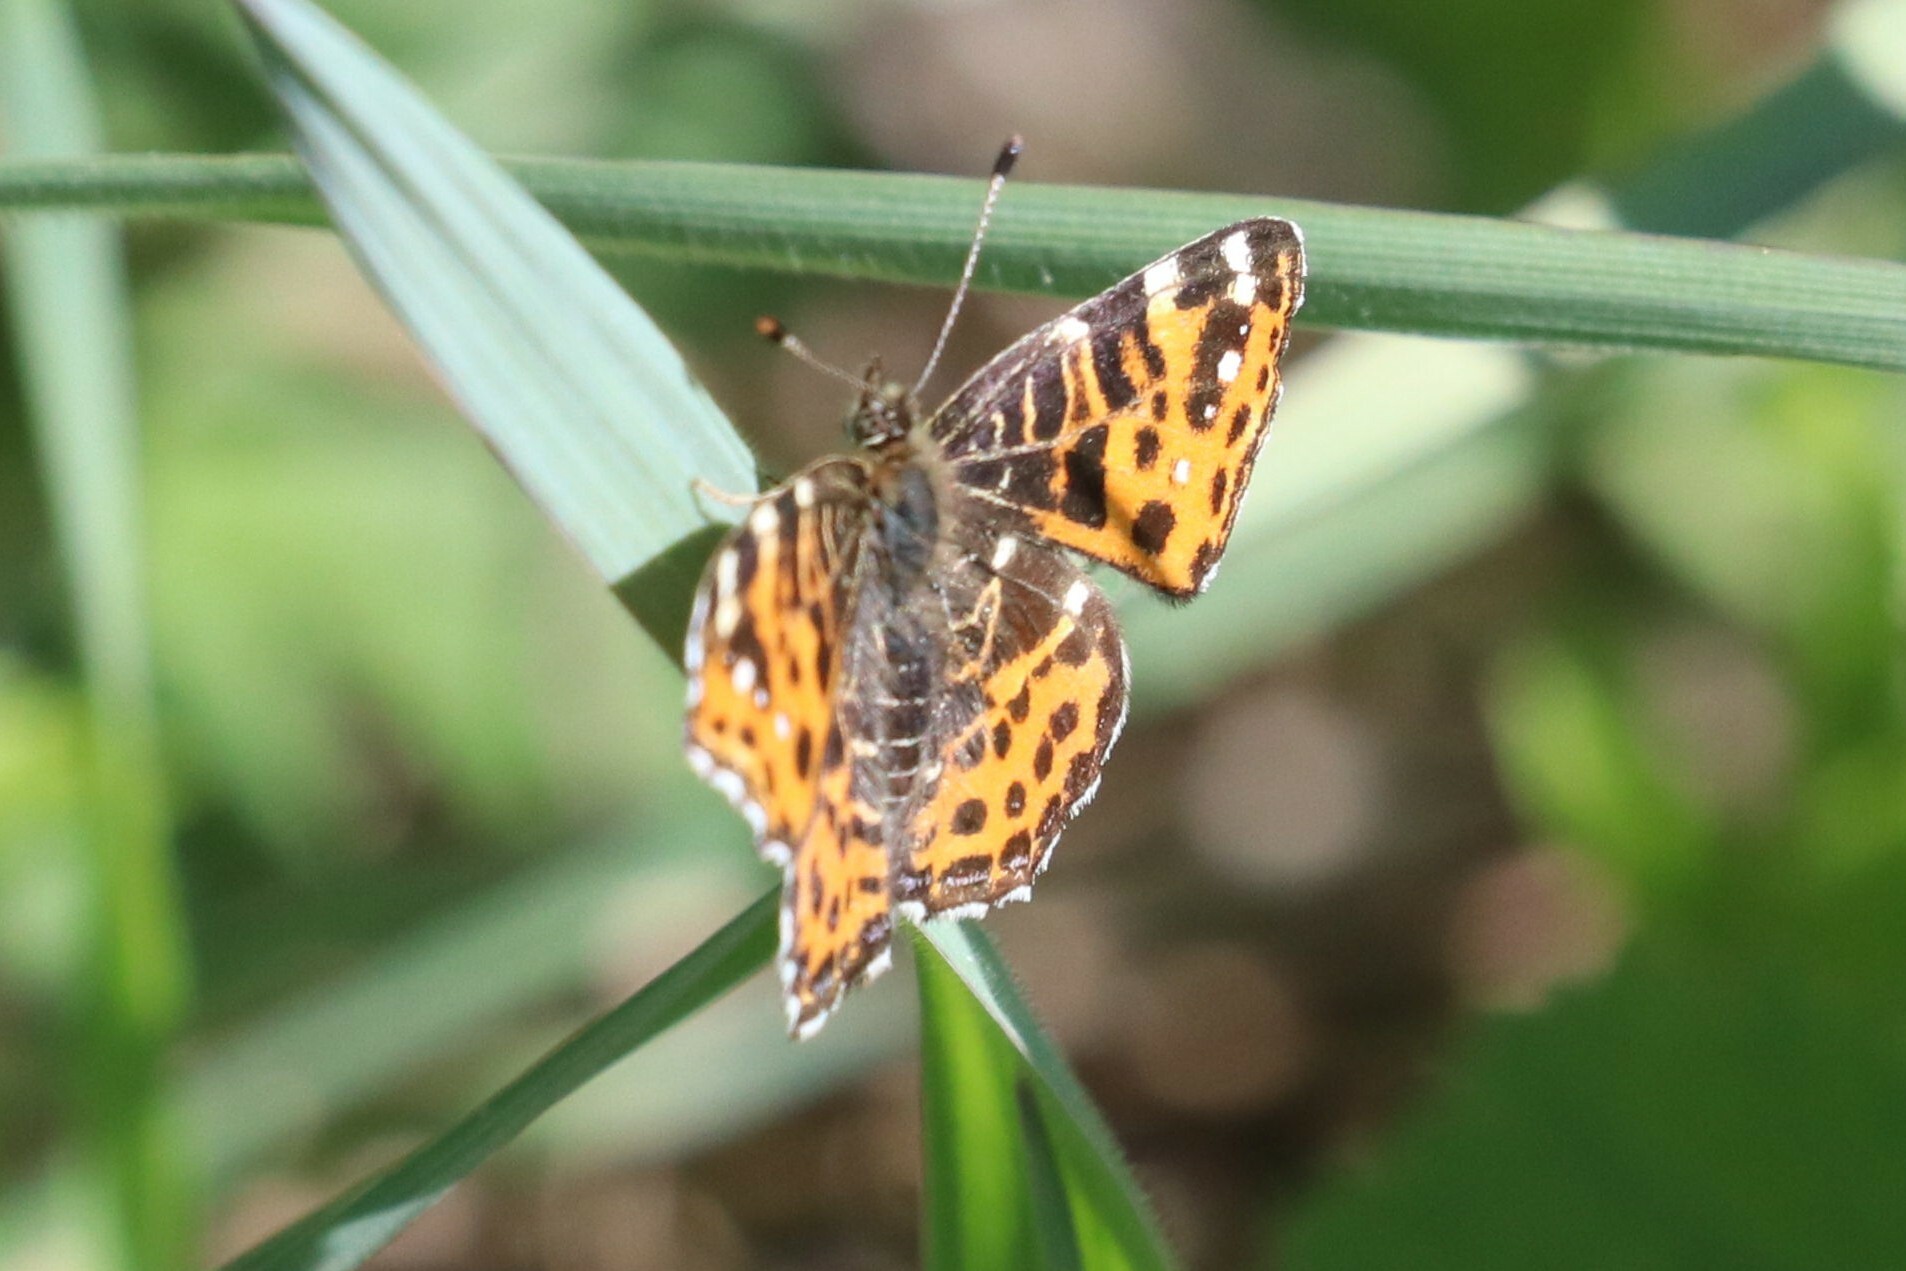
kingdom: Animalia
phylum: Arthropoda
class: Insecta
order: Lepidoptera
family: Nymphalidae
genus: Araschnia
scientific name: Araschnia levana
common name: Map butterfly
